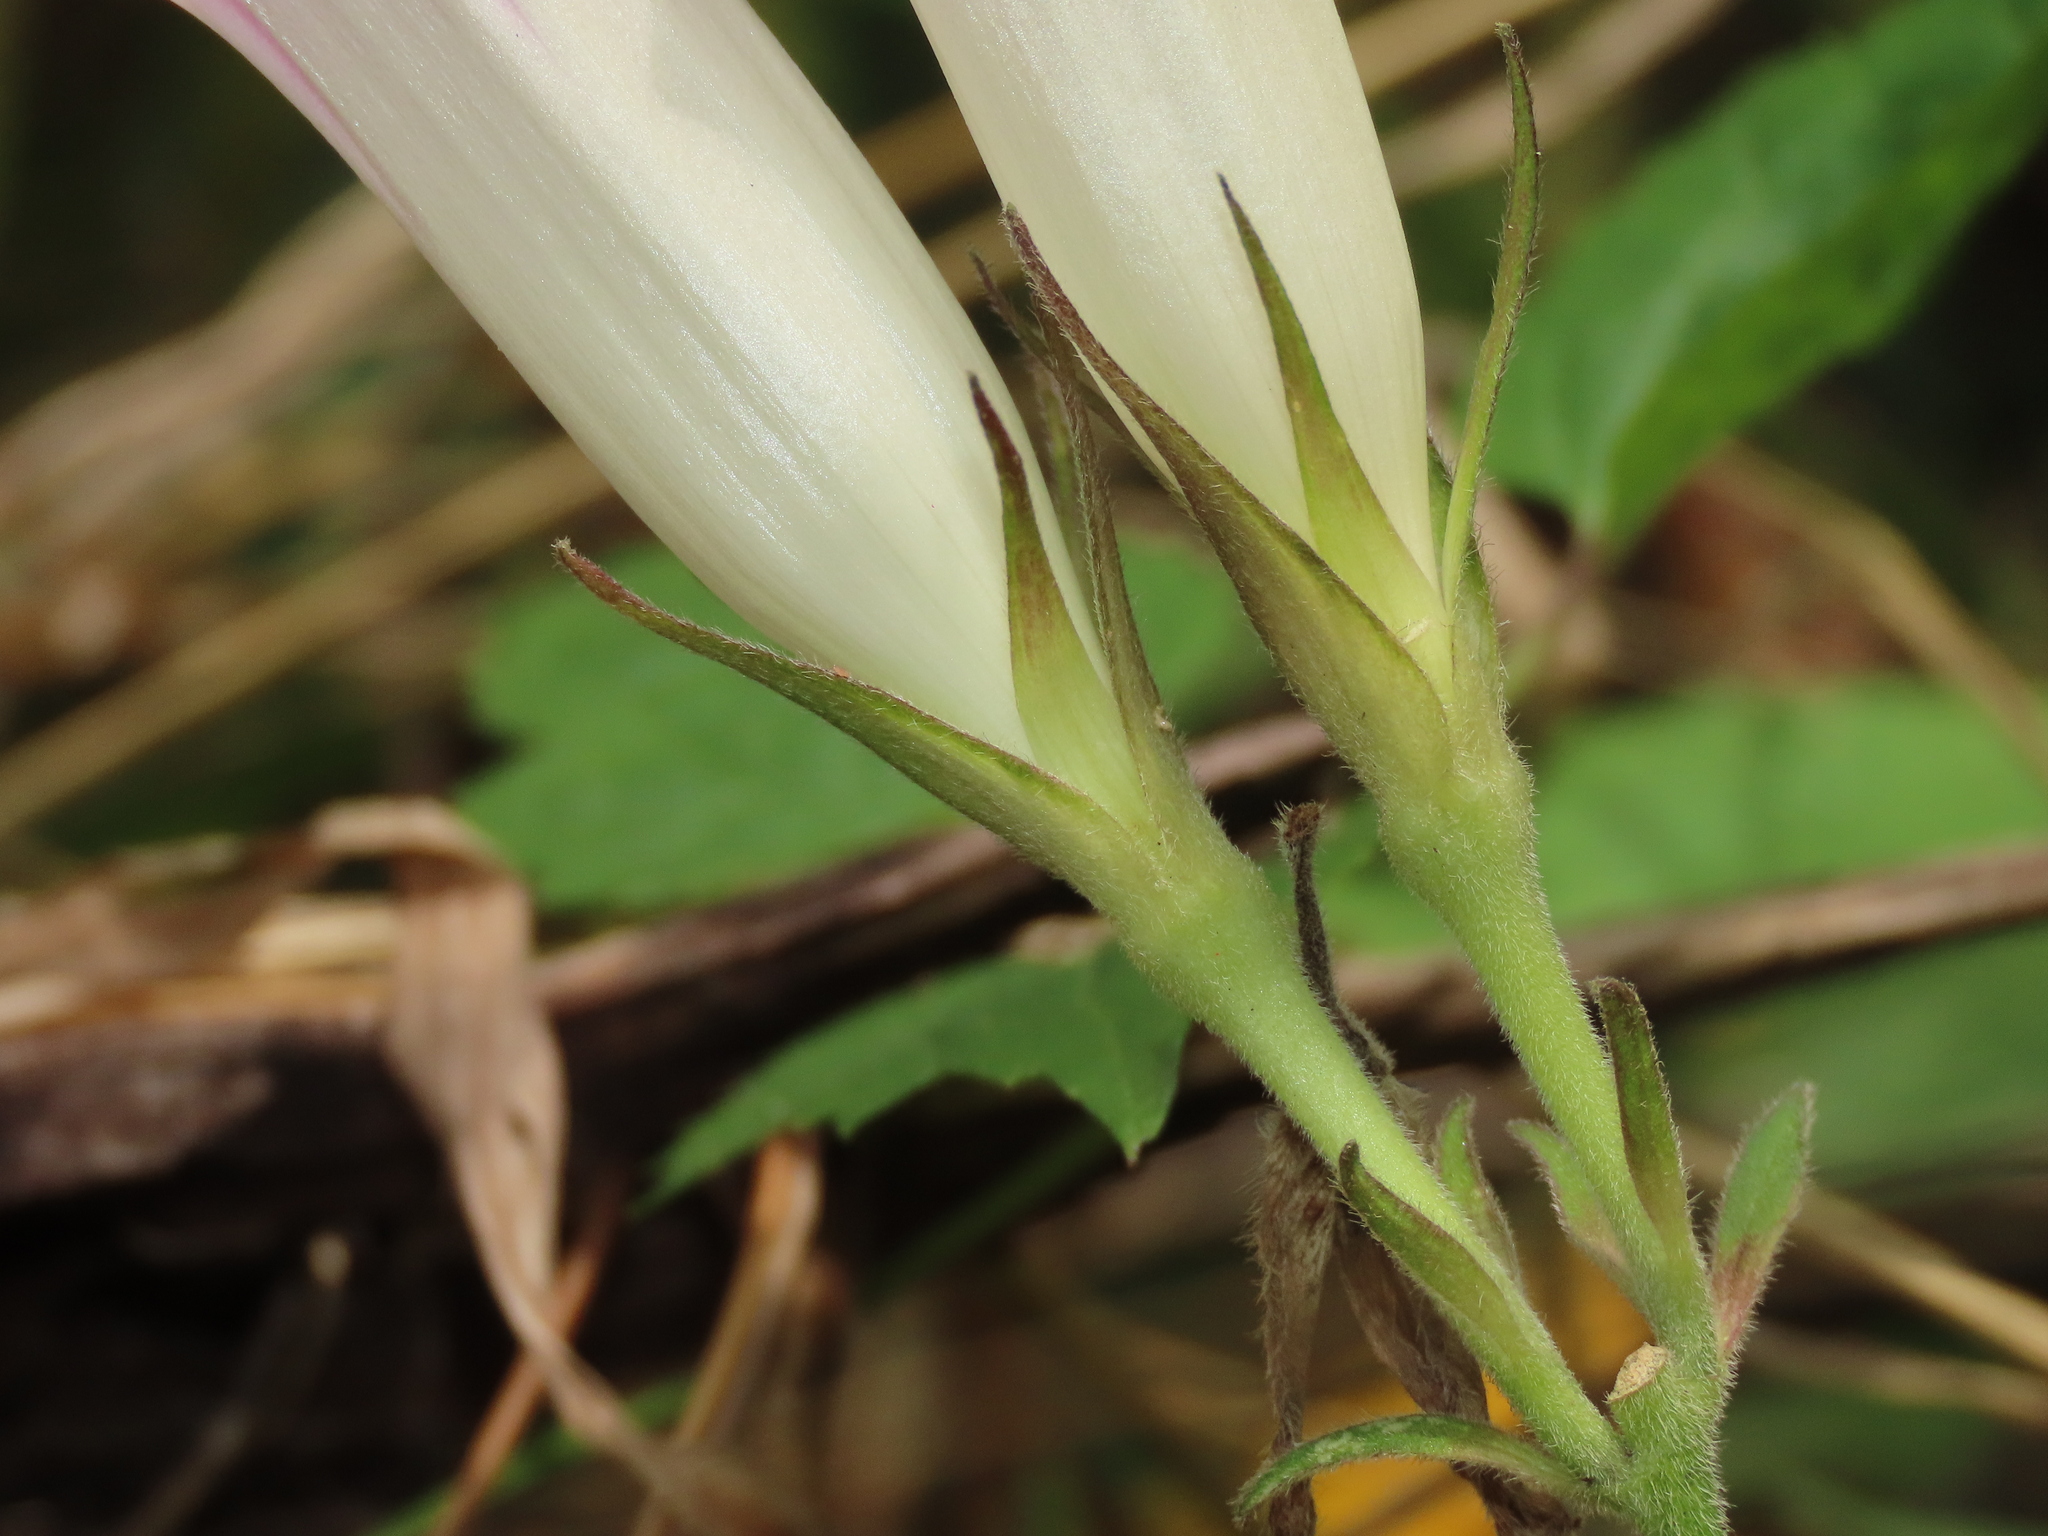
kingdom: Plantae
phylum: Tracheophyta
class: Magnoliopsida
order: Solanales
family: Convolvulaceae
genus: Ipomoea
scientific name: Ipomoea indica
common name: Blue dawnflower
